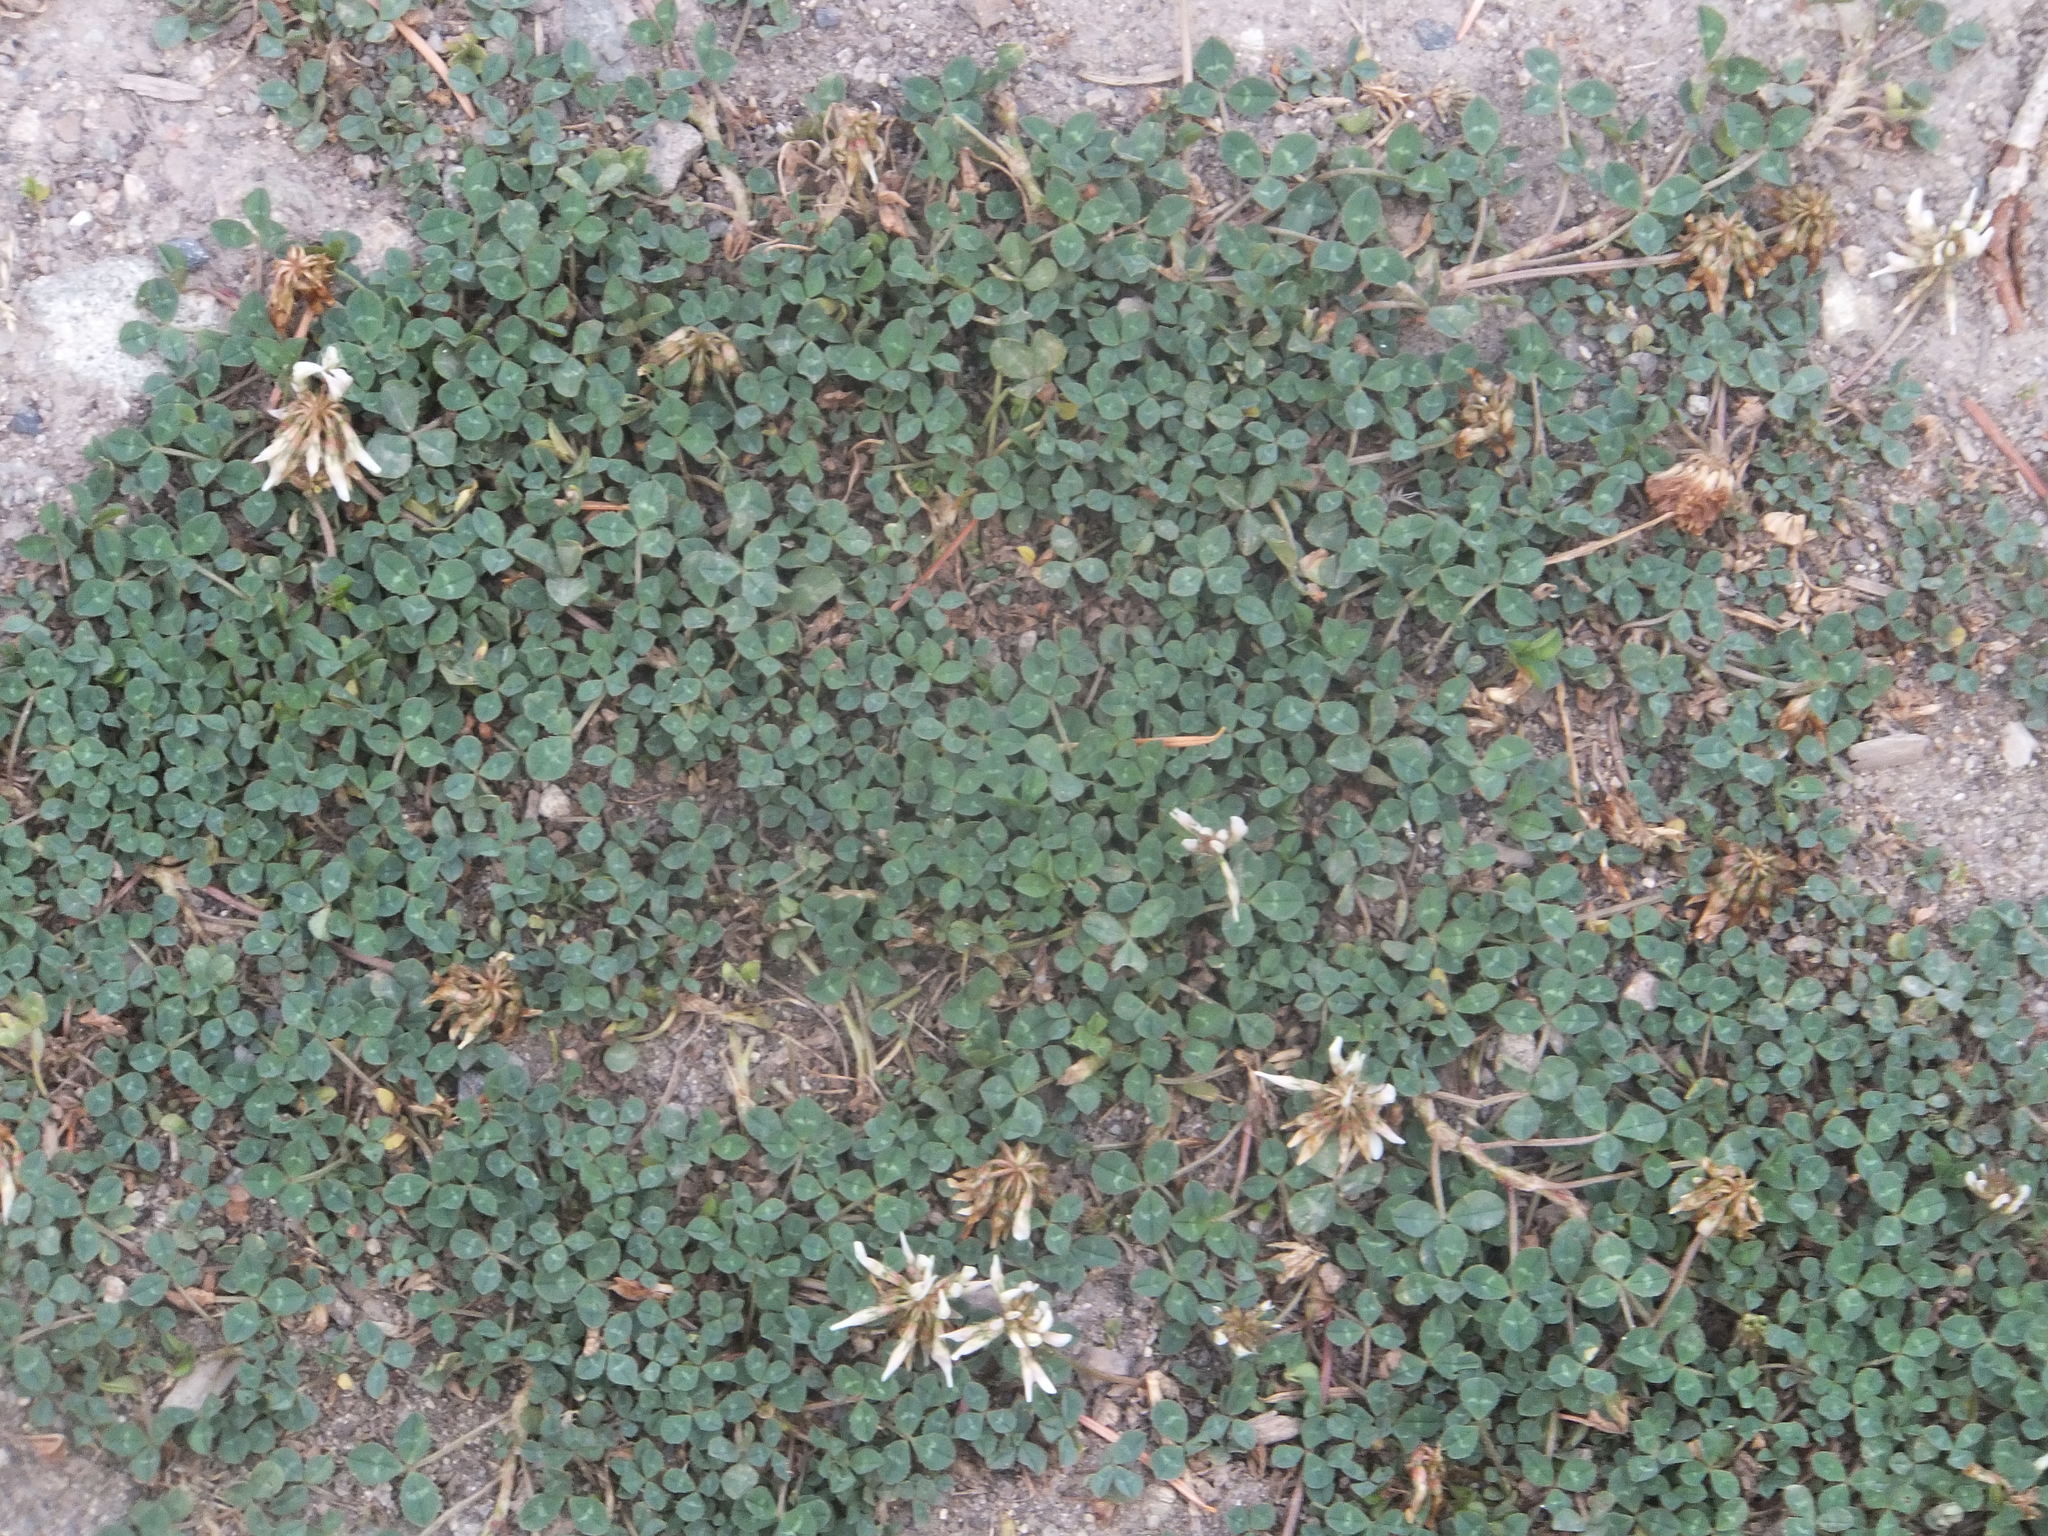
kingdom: Plantae
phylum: Tracheophyta
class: Magnoliopsida
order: Fabales
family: Fabaceae
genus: Trifolium
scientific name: Trifolium repens
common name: White clover
